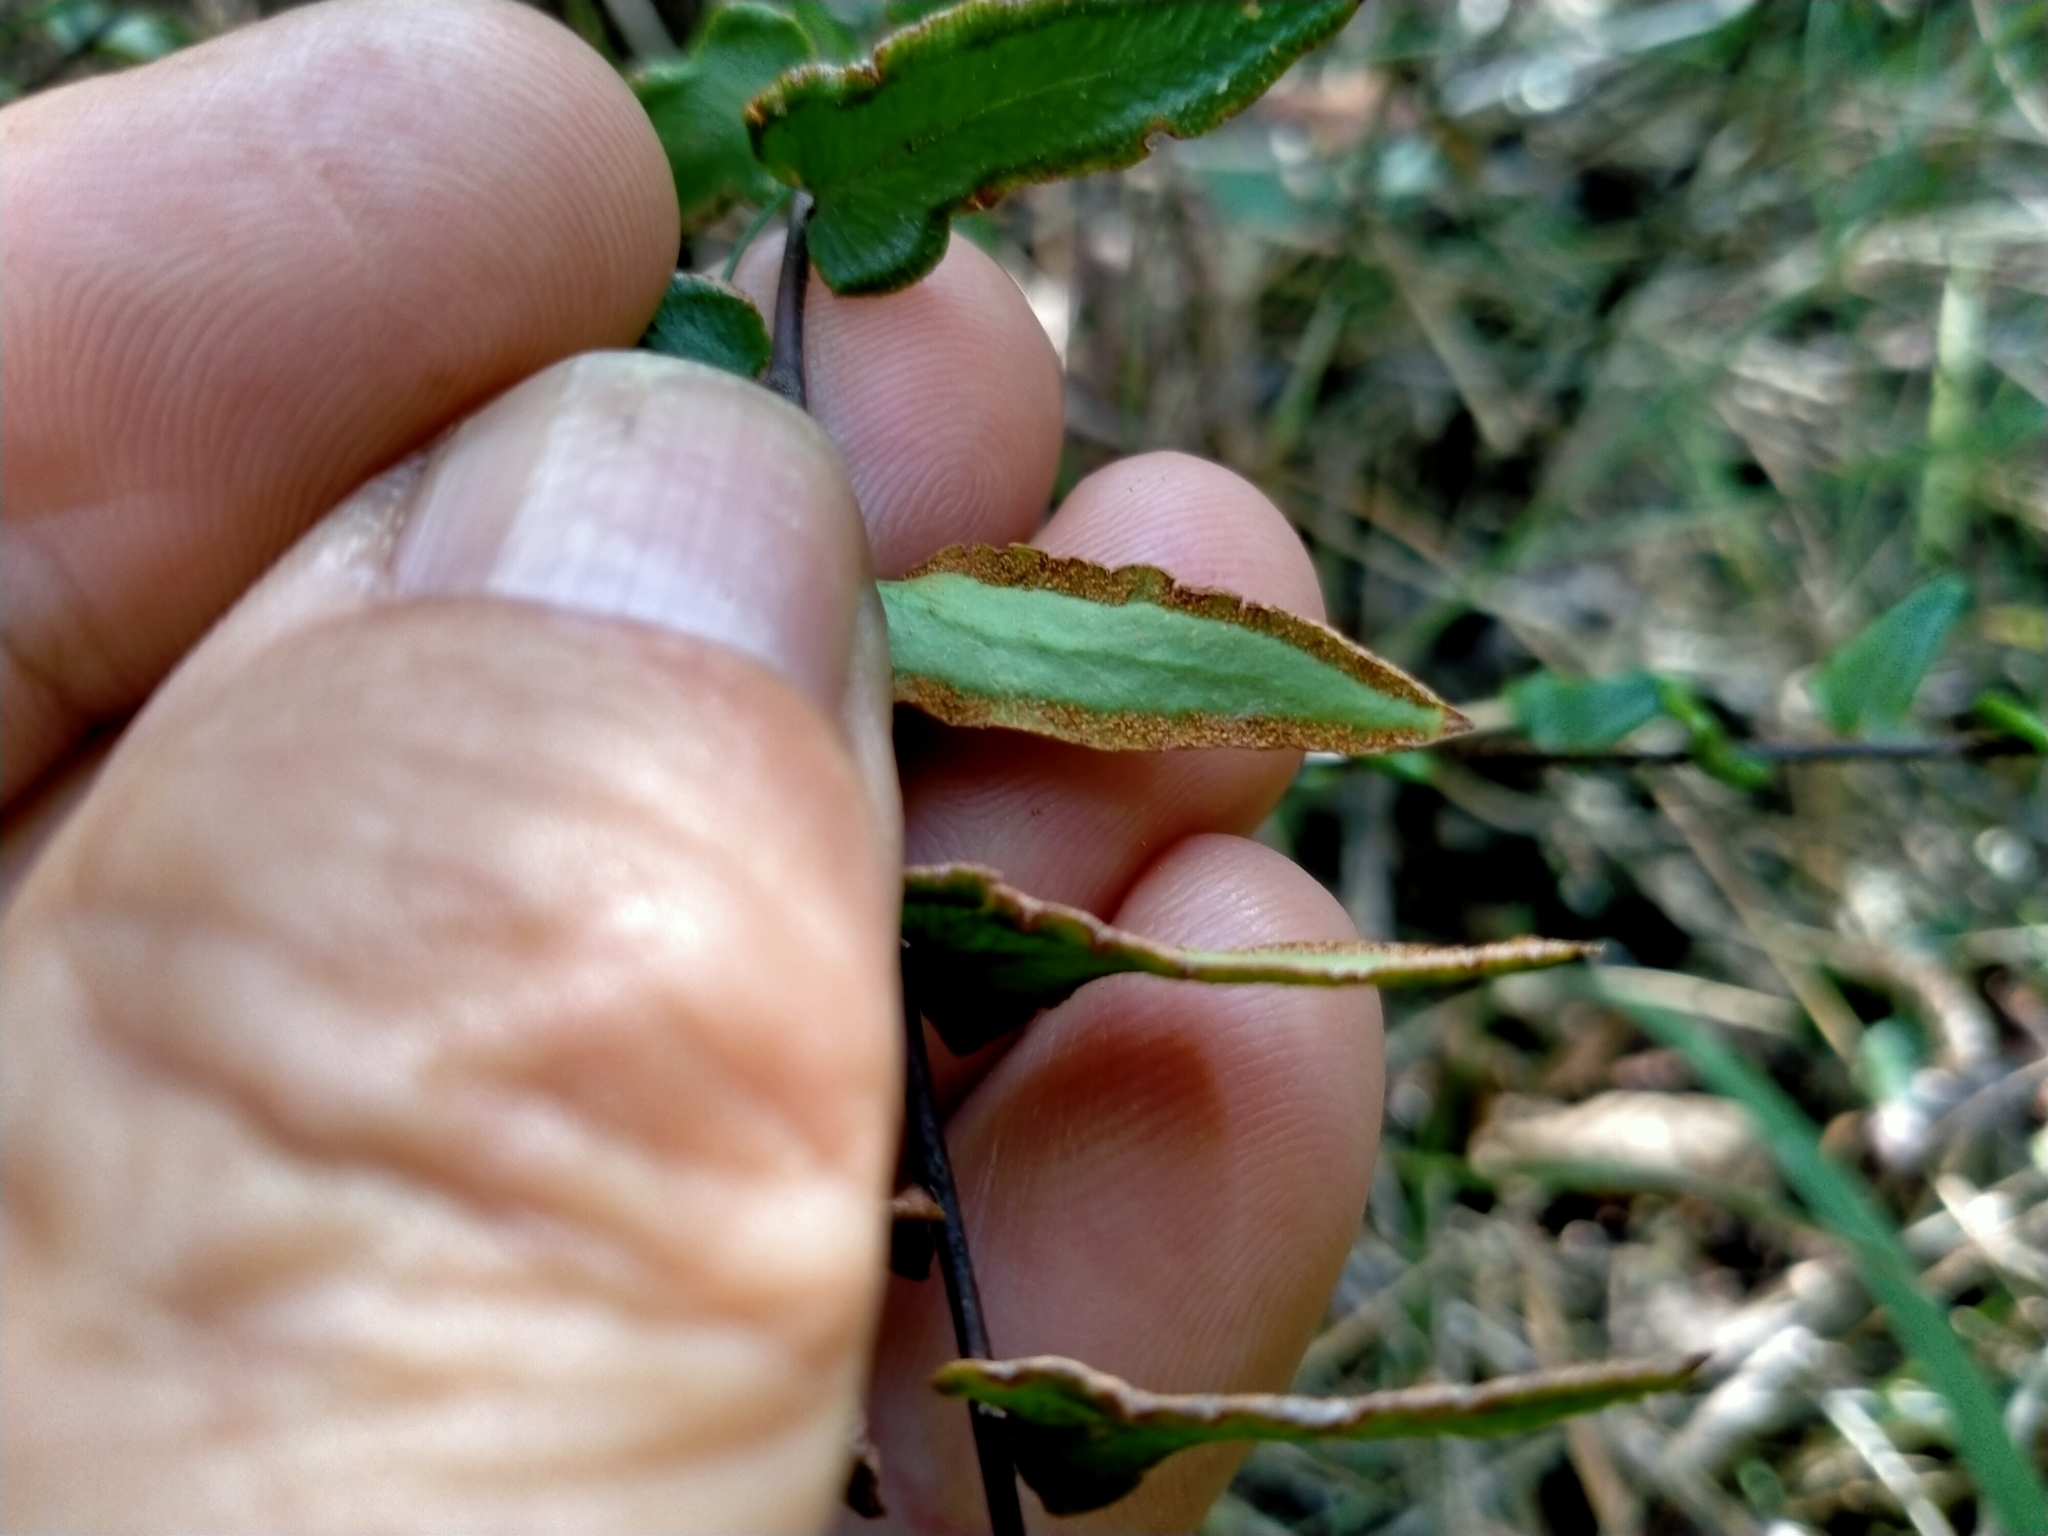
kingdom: Plantae
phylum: Tracheophyta
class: Polypodiopsida
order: Polypodiales
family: Pteridaceae
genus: Pellaea
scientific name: Pellaea calidirupium
